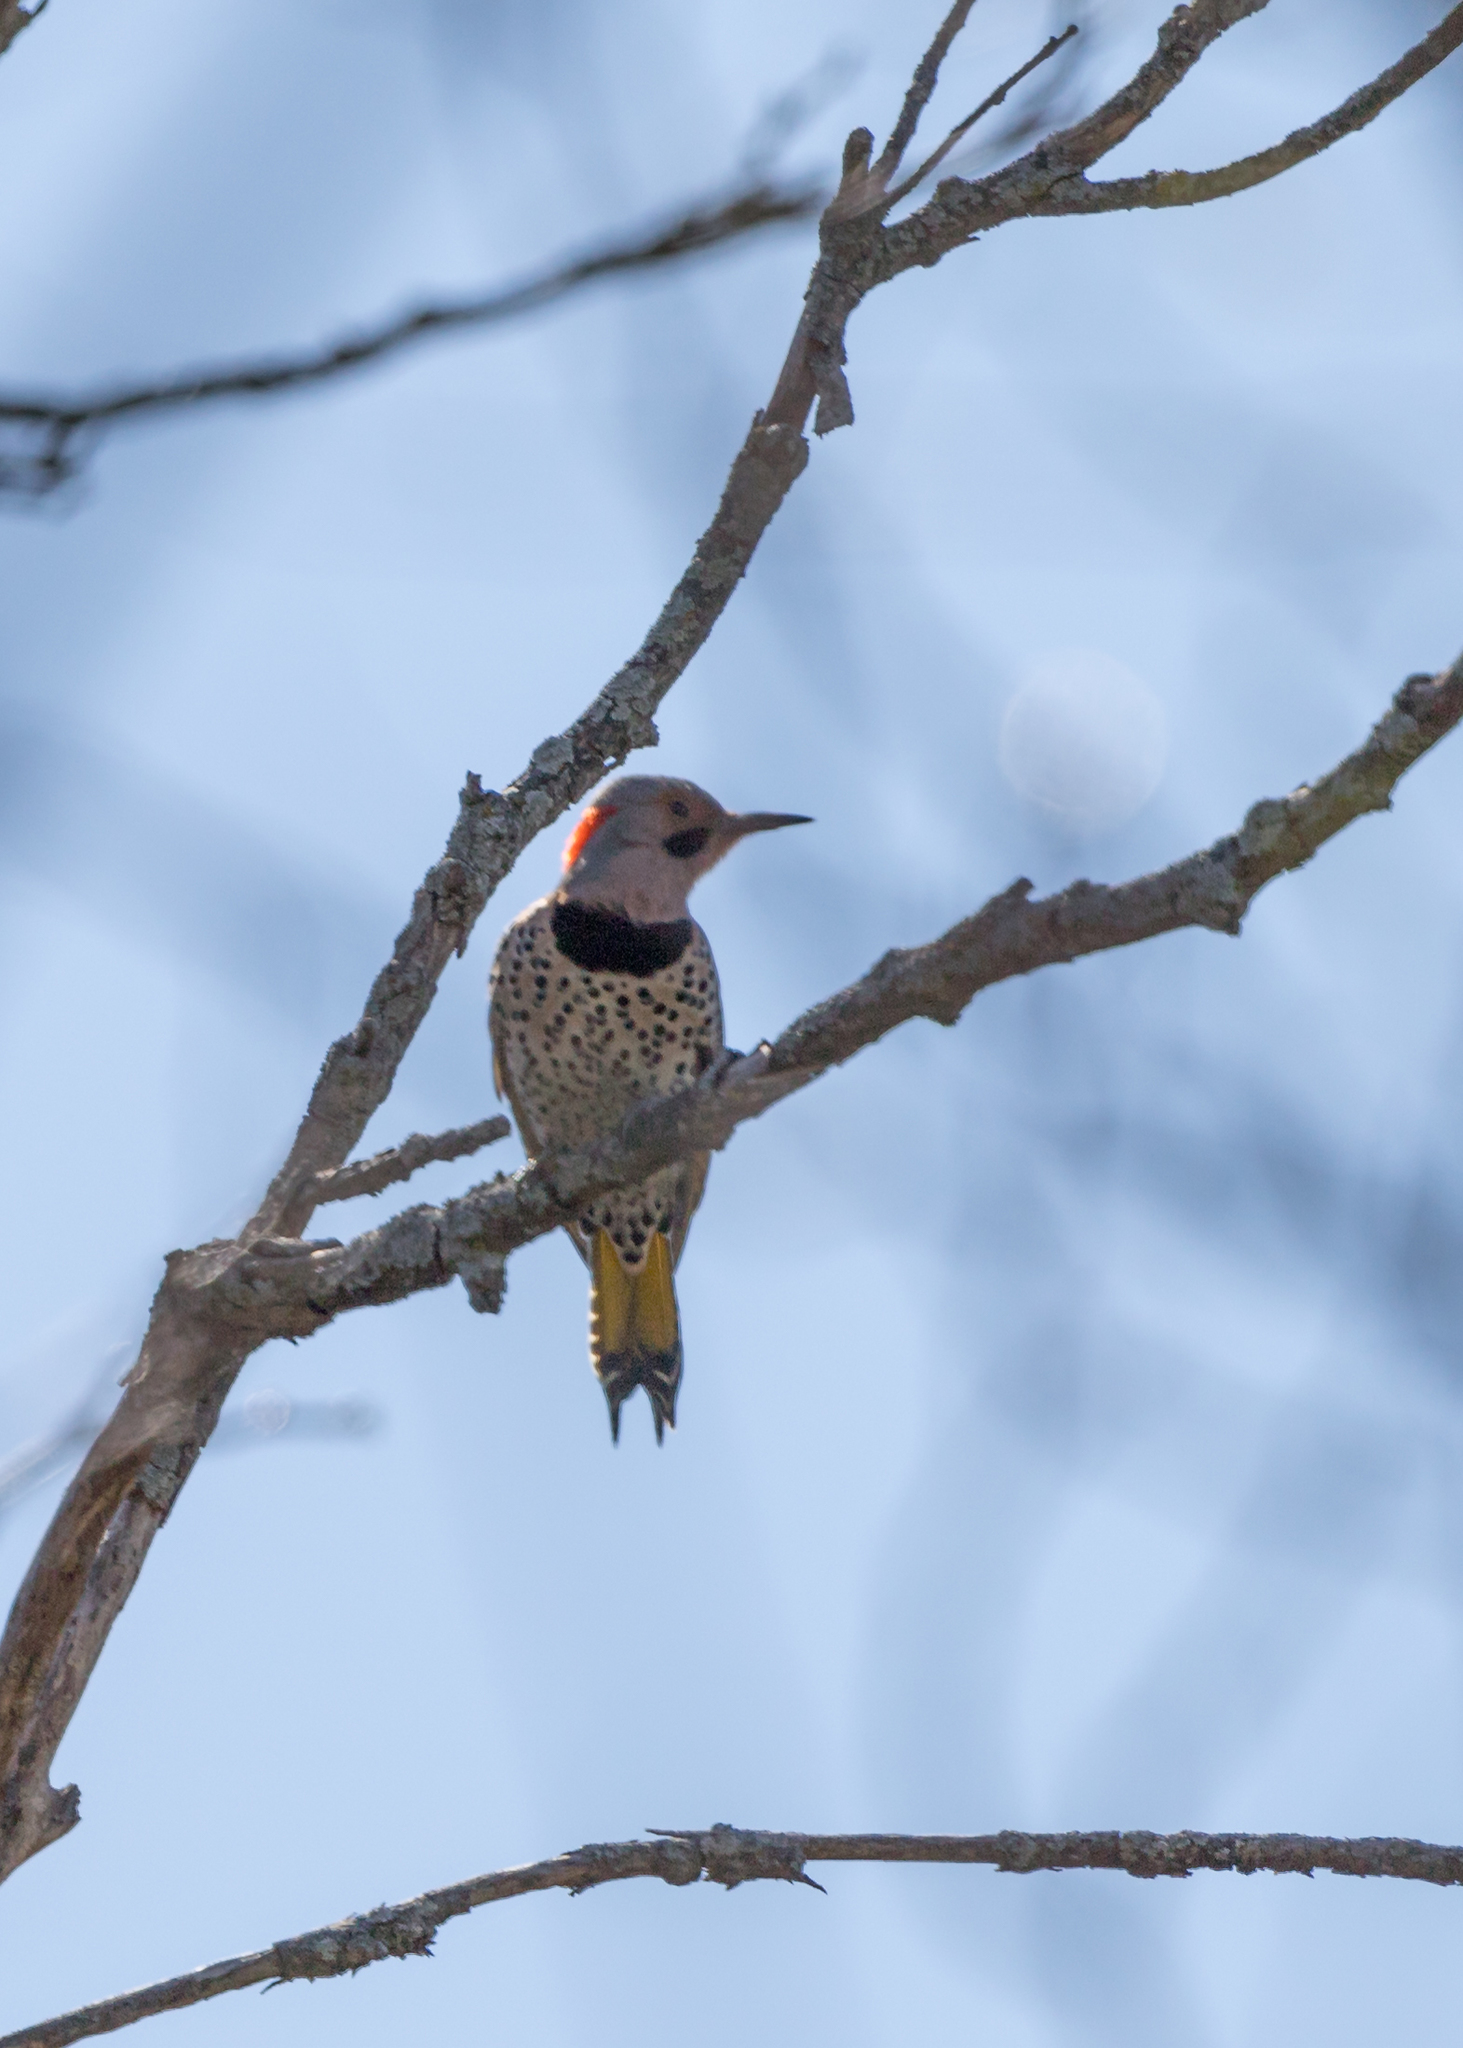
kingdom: Animalia
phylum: Chordata
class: Aves
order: Piciformes
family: Picidae
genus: Colaptes
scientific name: Colaptes auratus
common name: Northern flicker
